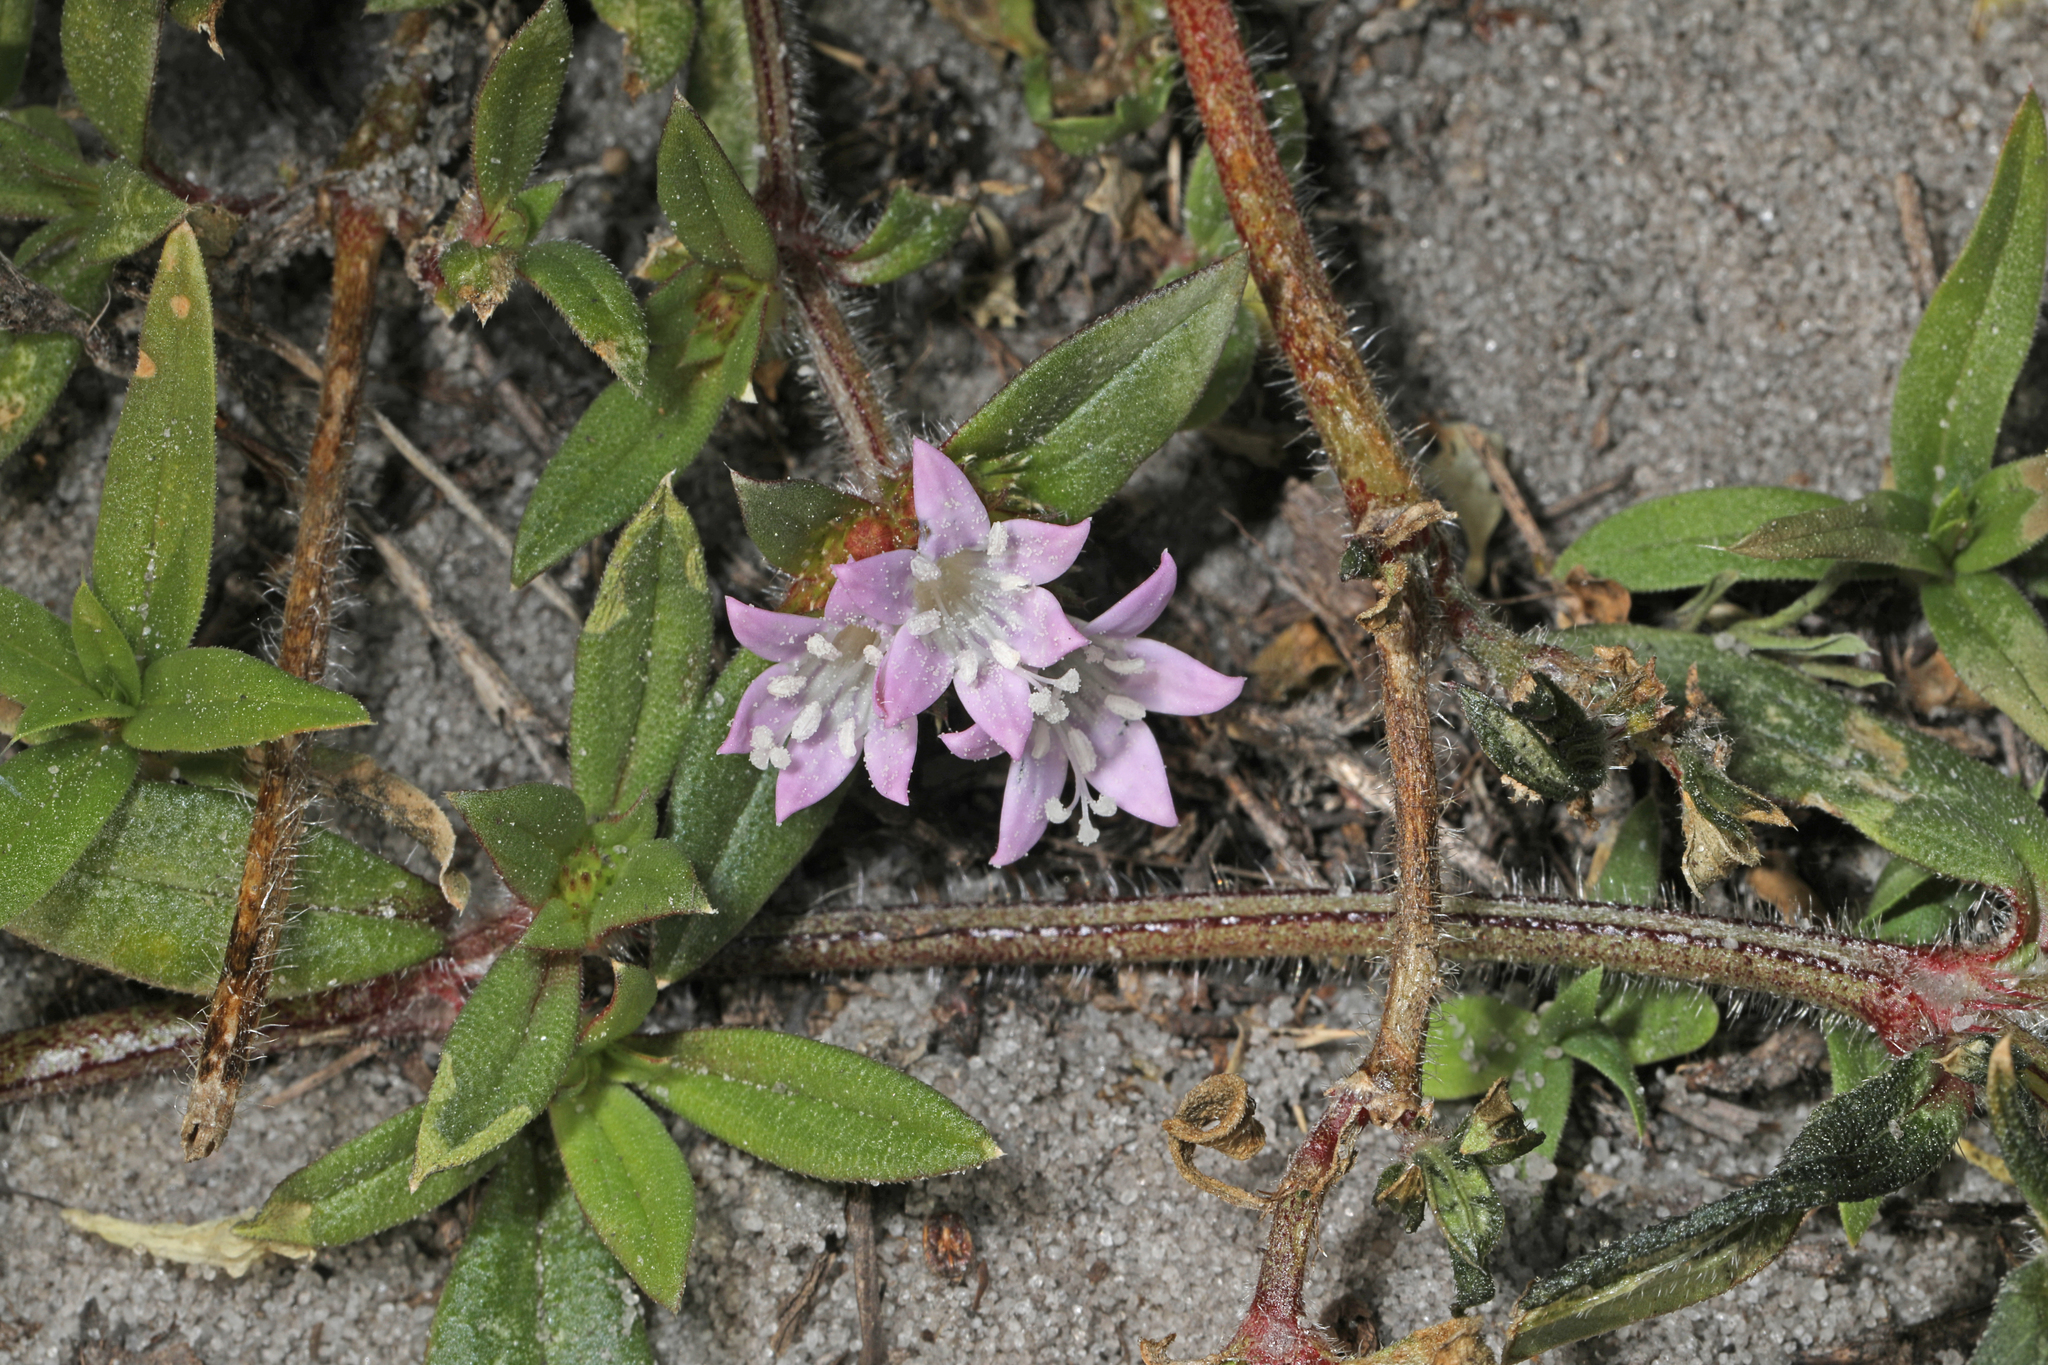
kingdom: Plantae
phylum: Tracheophyta
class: Magnoliopsida
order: Gentianales
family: Rubiaceae
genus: Richardia
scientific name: Richardia grandiflora
